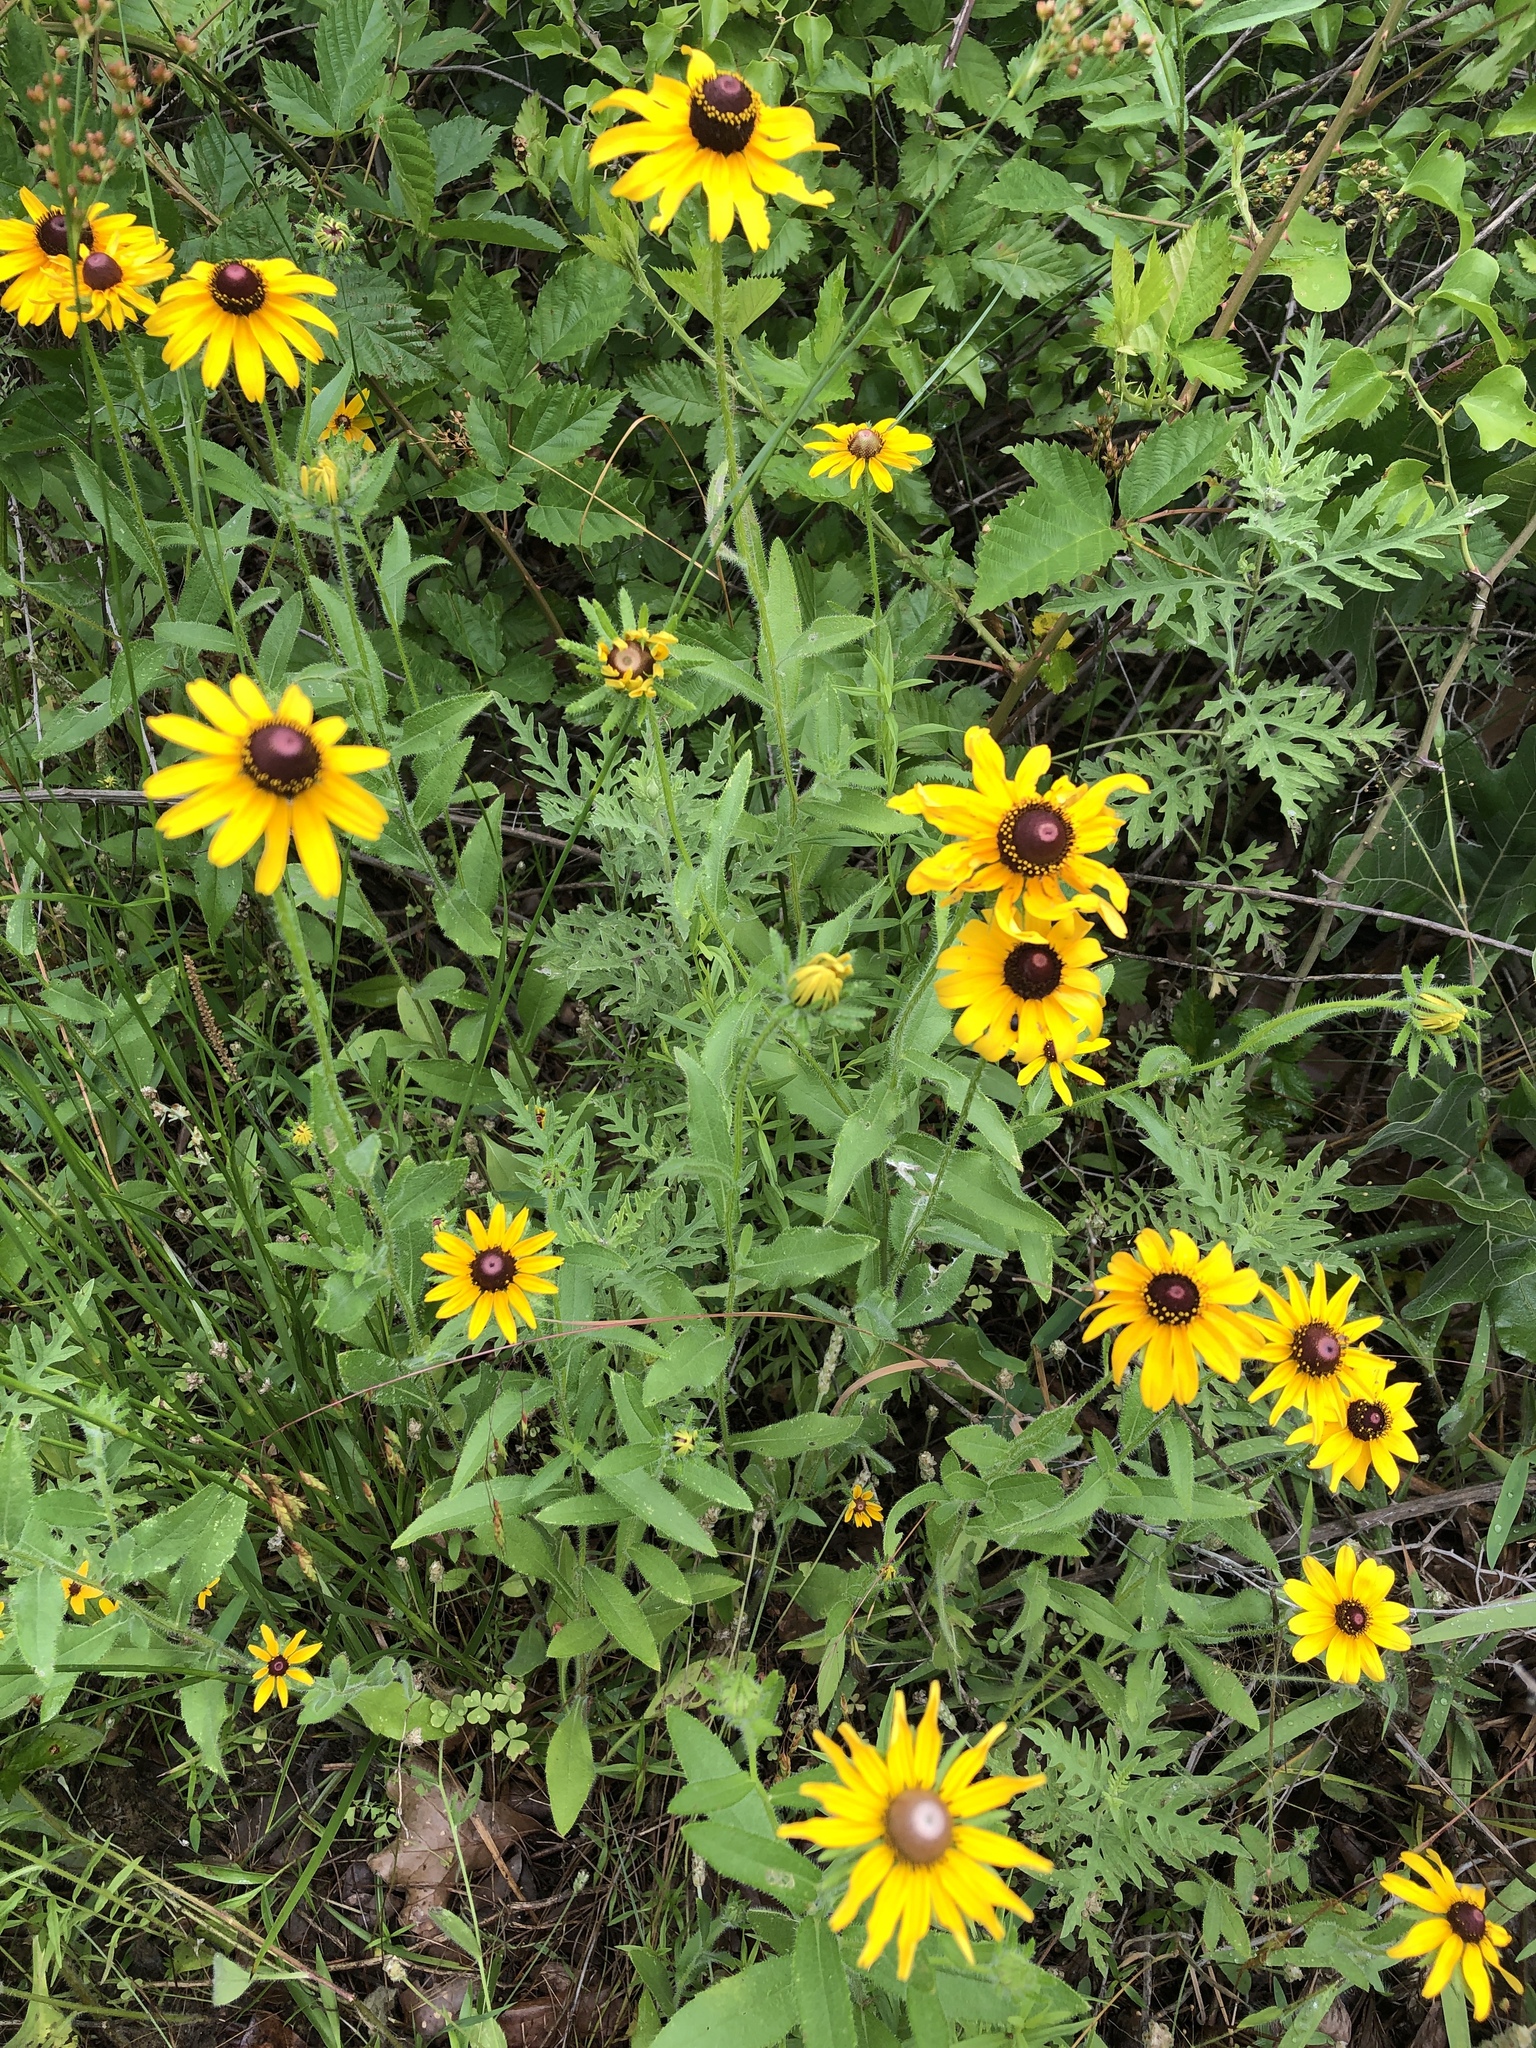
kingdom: Plantae
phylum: Tracheophyta
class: Magnoliopsida
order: Asterales
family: Asteraceae
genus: Rudbeckia
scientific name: Rudbeckia hirta
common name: Black-eyed-susan
